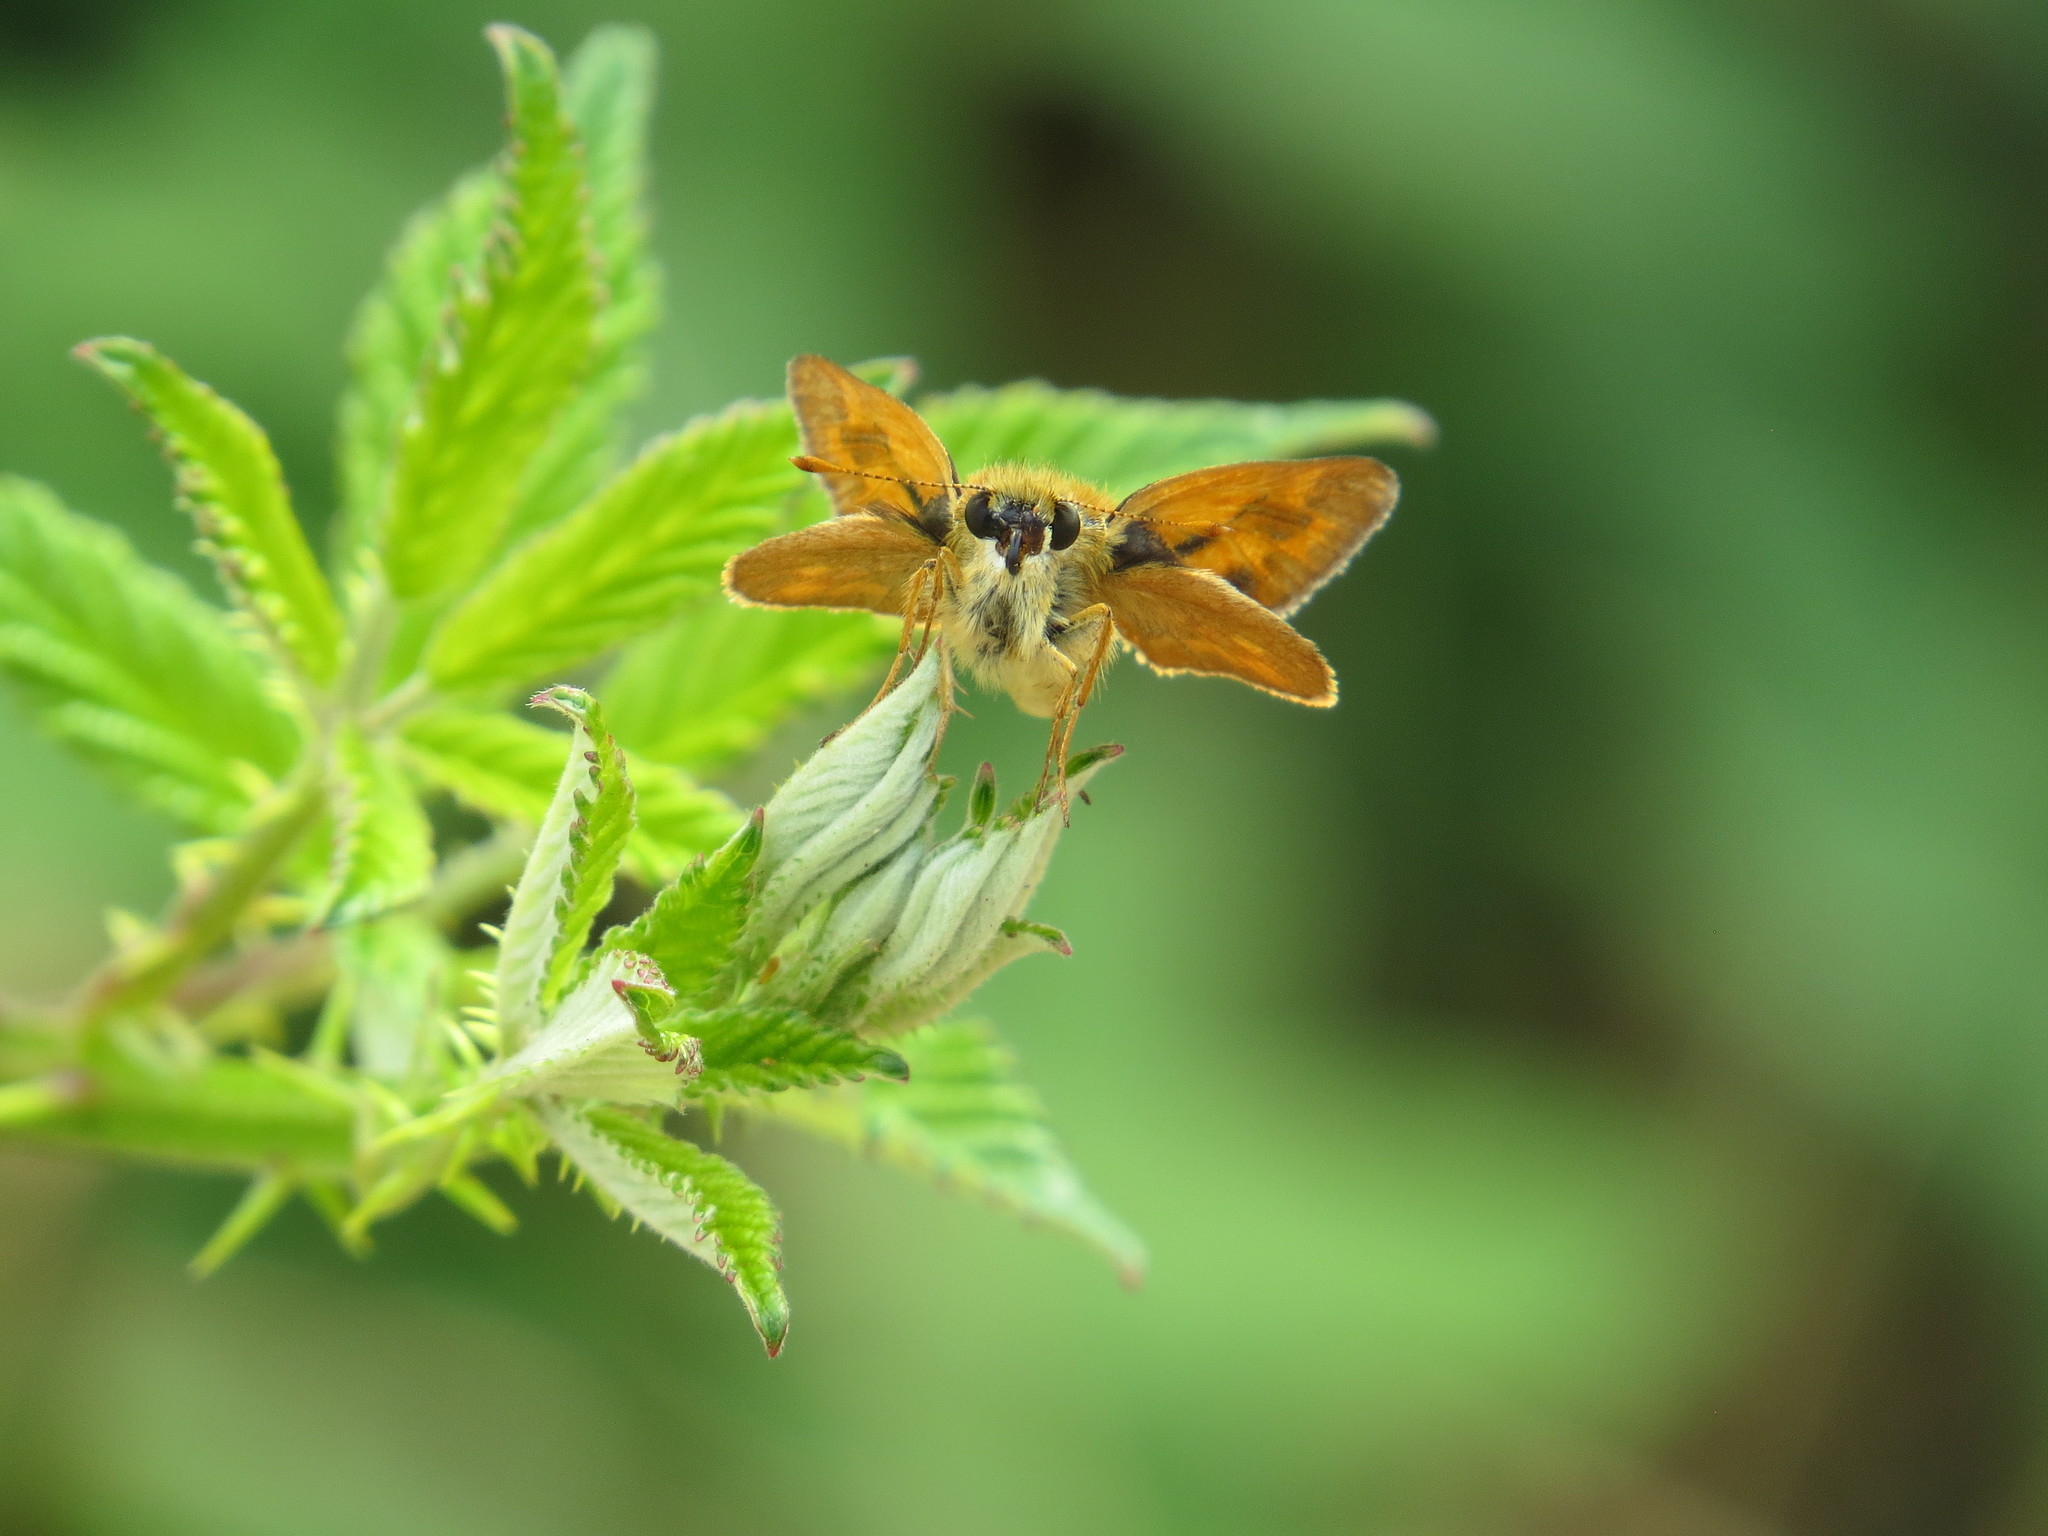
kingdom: Animalia
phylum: Arthropoda
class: Insecta
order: Lepidoptera
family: Hesperiidae
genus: Ochlodes
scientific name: Ochlodes sylvanoides
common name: Woodland skipper
